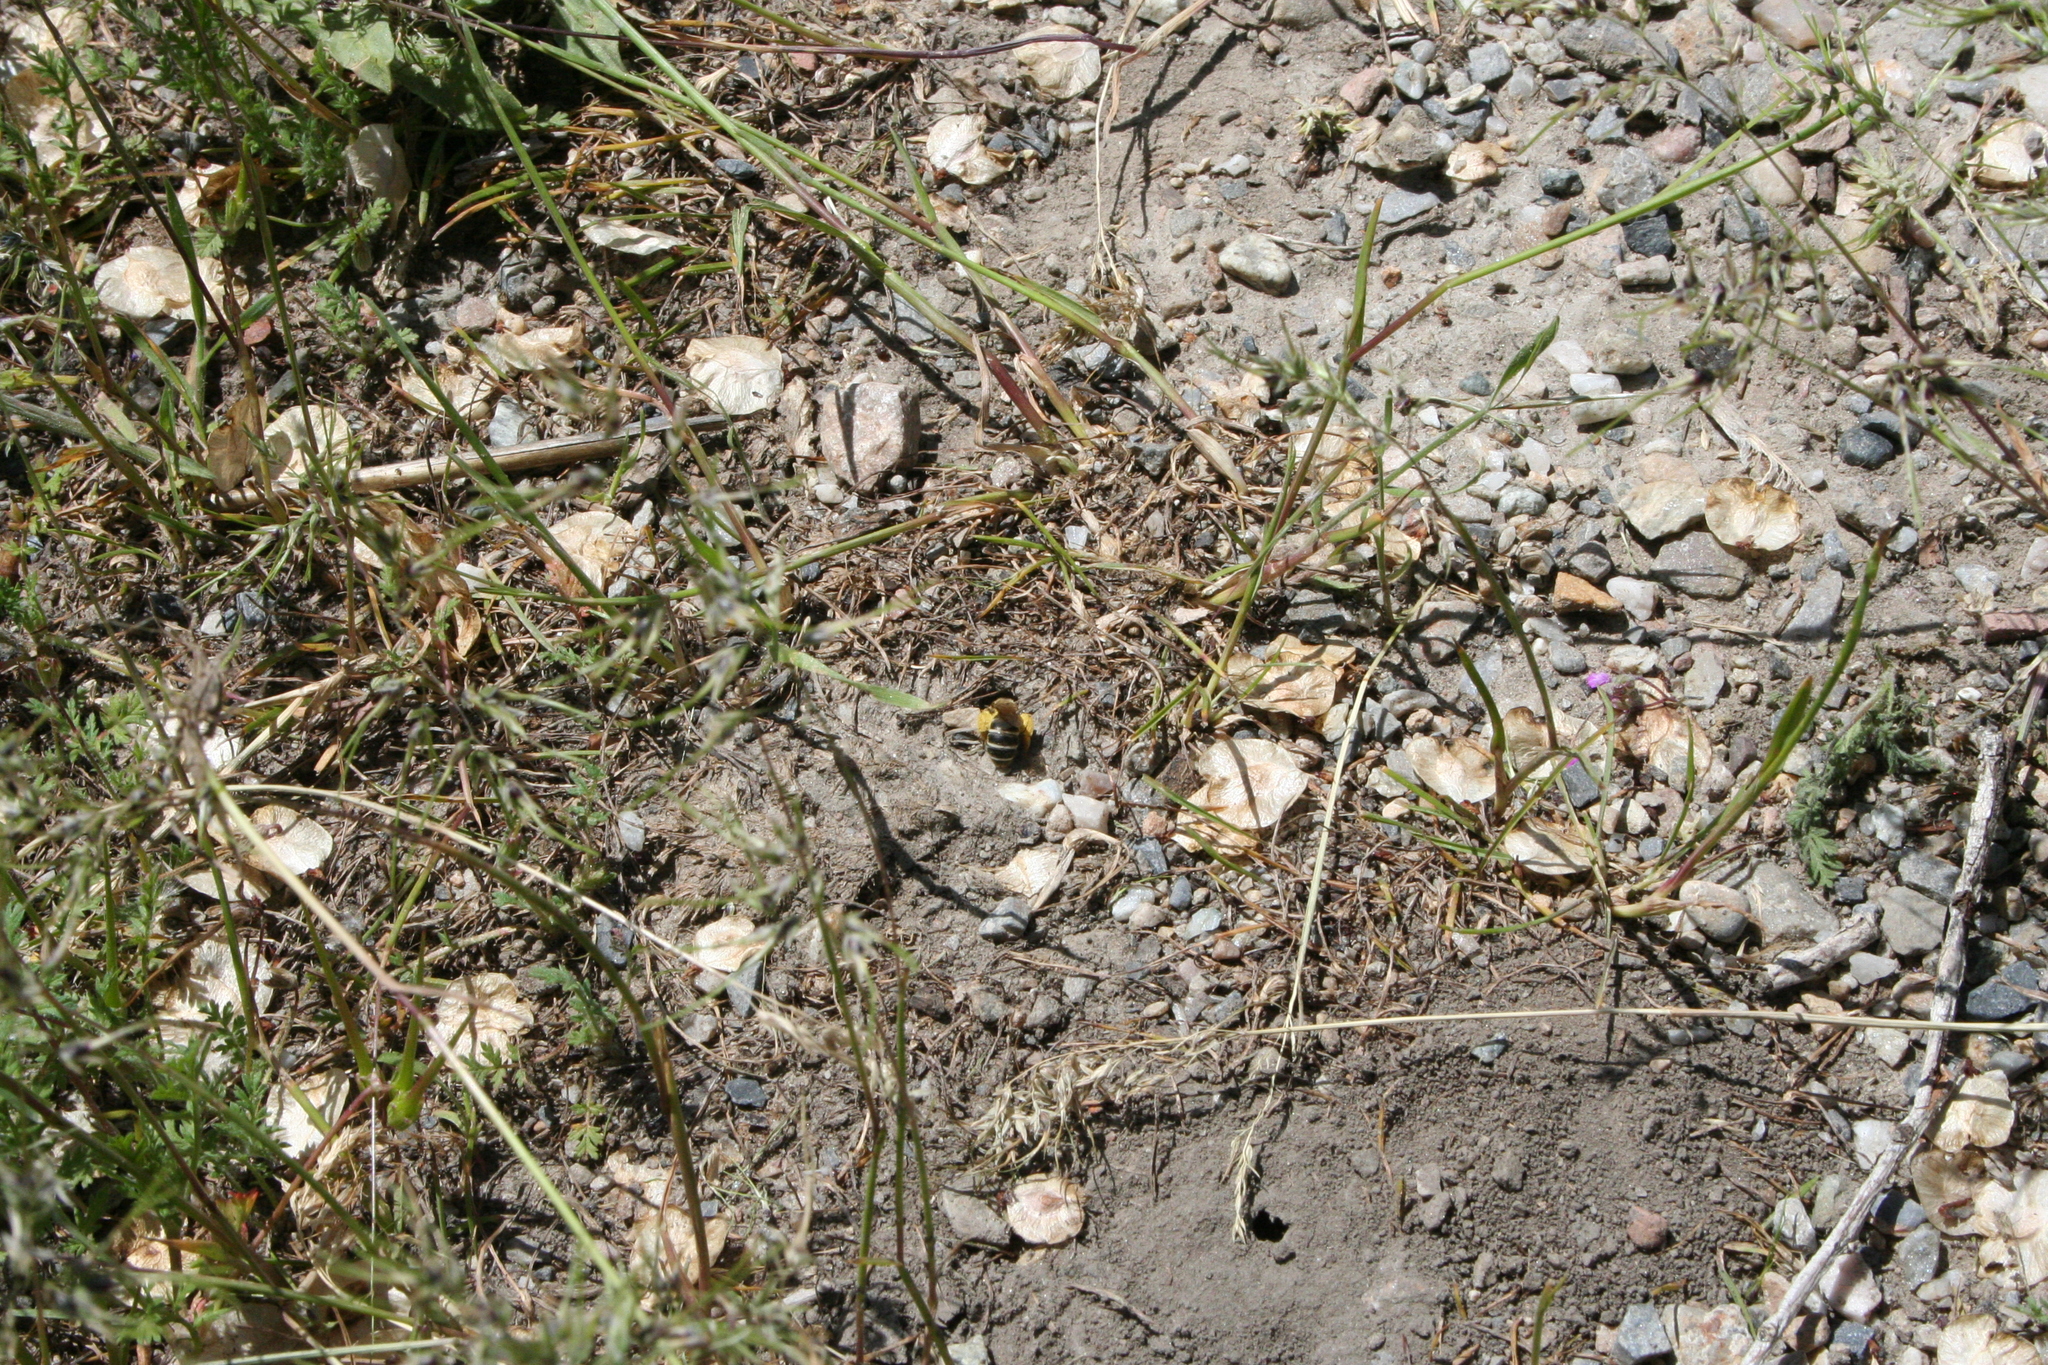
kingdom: Animalia
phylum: Arthropoda
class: Insecta
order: Hymenoptera
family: Halictidae
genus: Halictus
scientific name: Halictus rubicundus
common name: Orange-legged furrow bee
